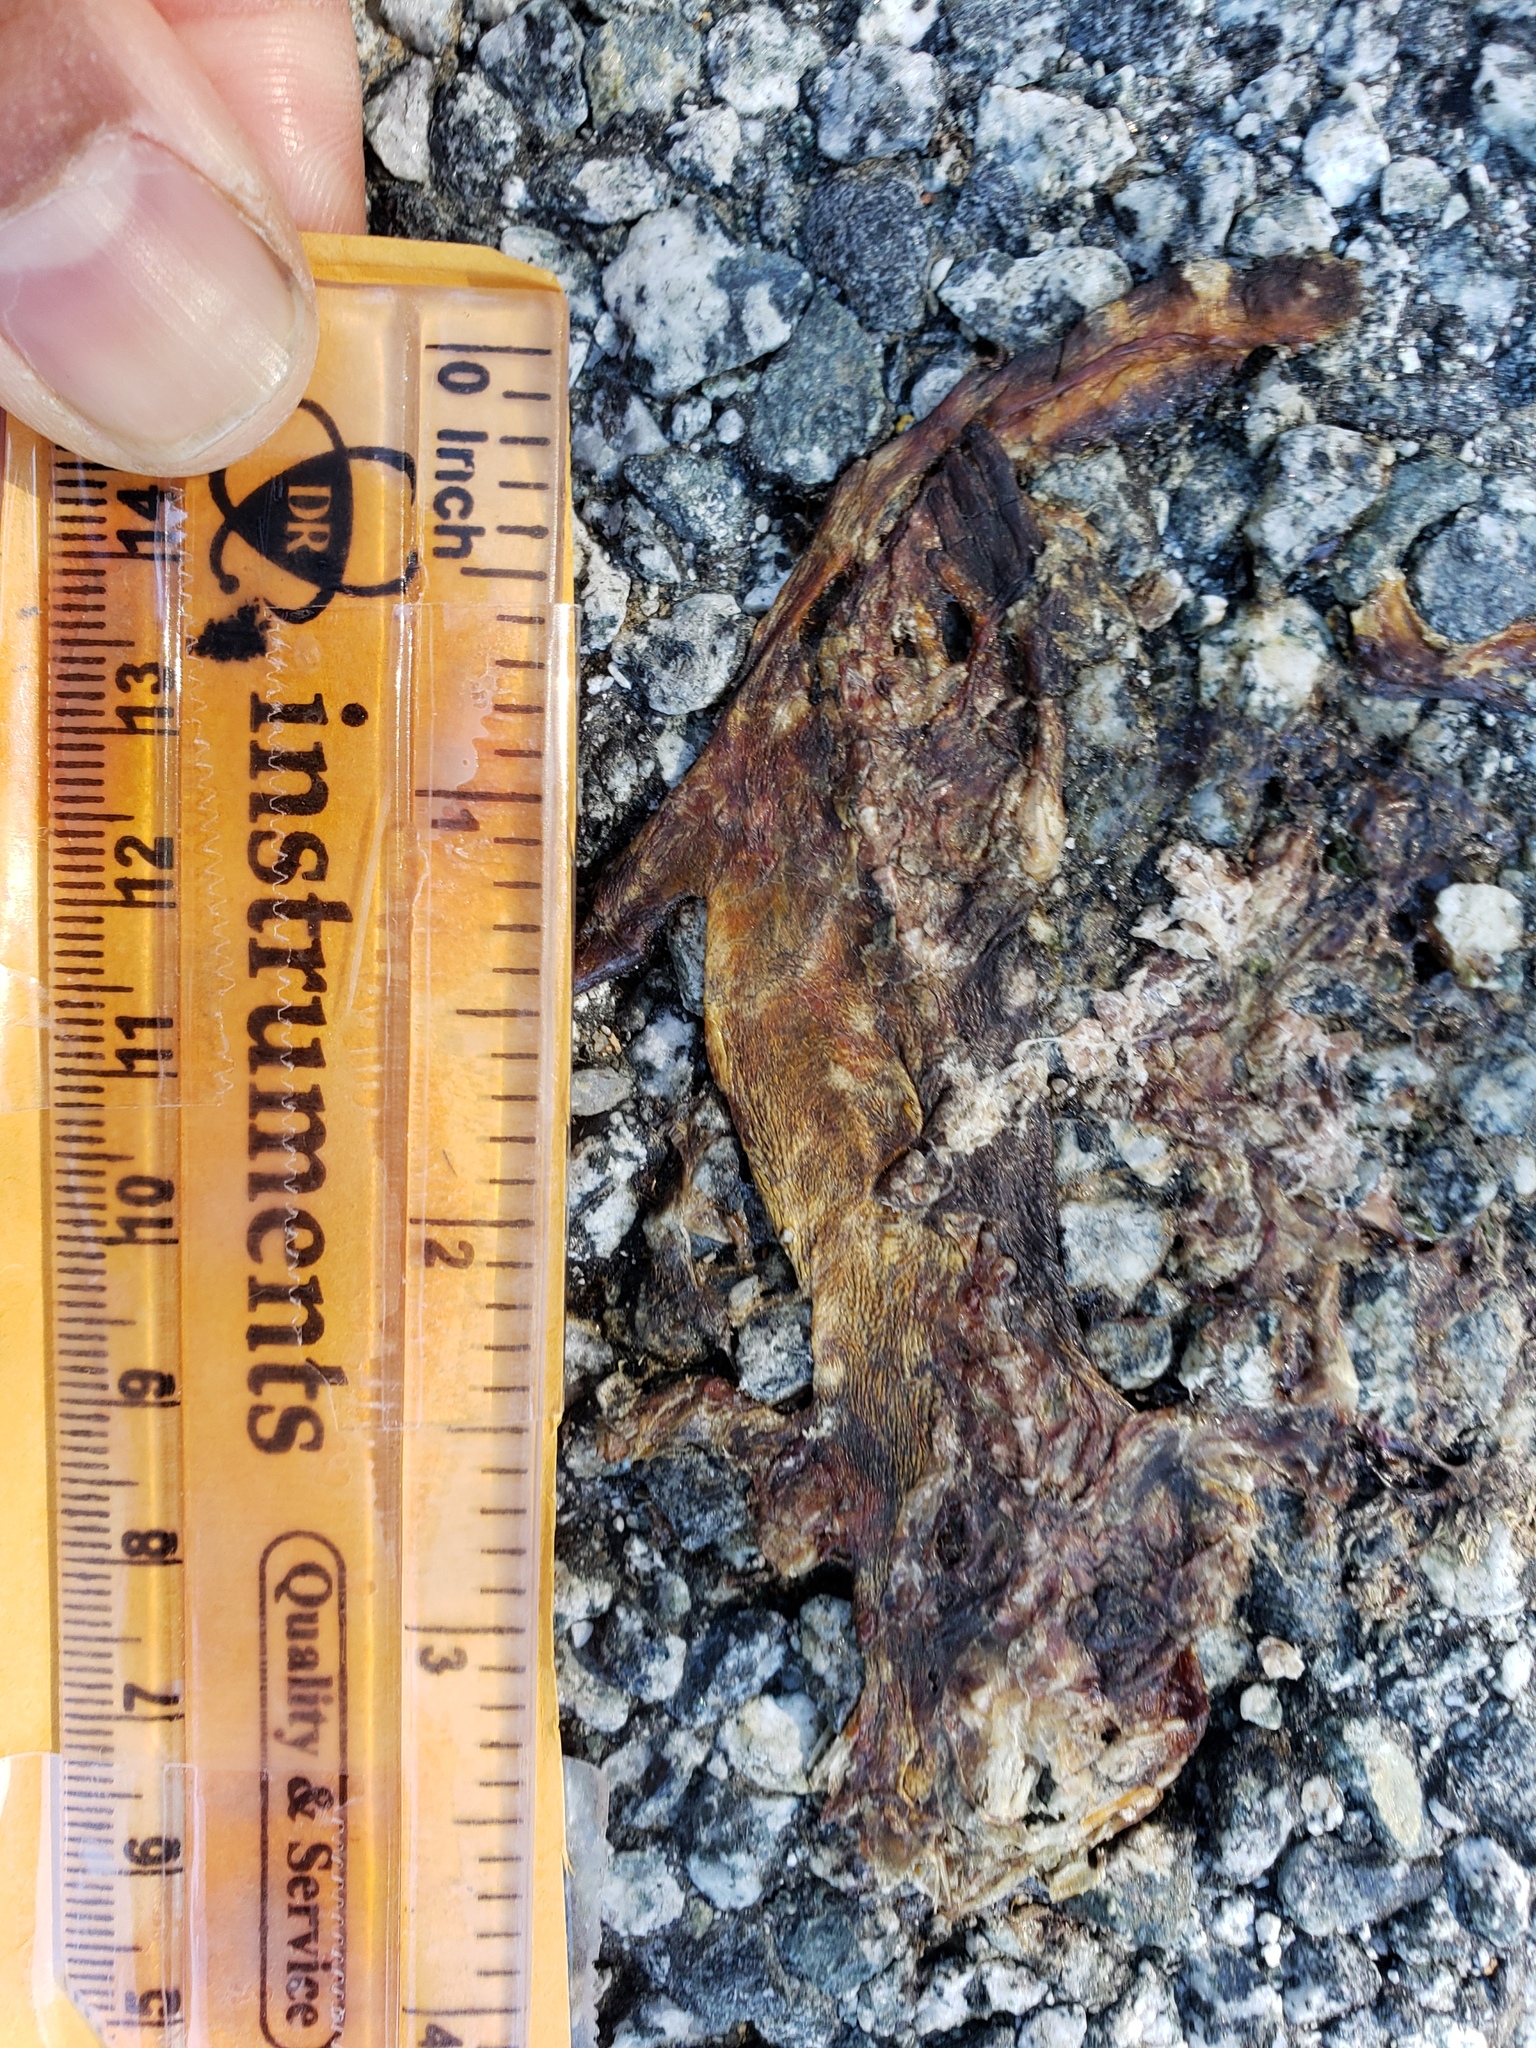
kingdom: Animalia
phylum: Chordata
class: Amphibia
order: Caudata
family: Salamandridae
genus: Taricha
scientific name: Taricha
